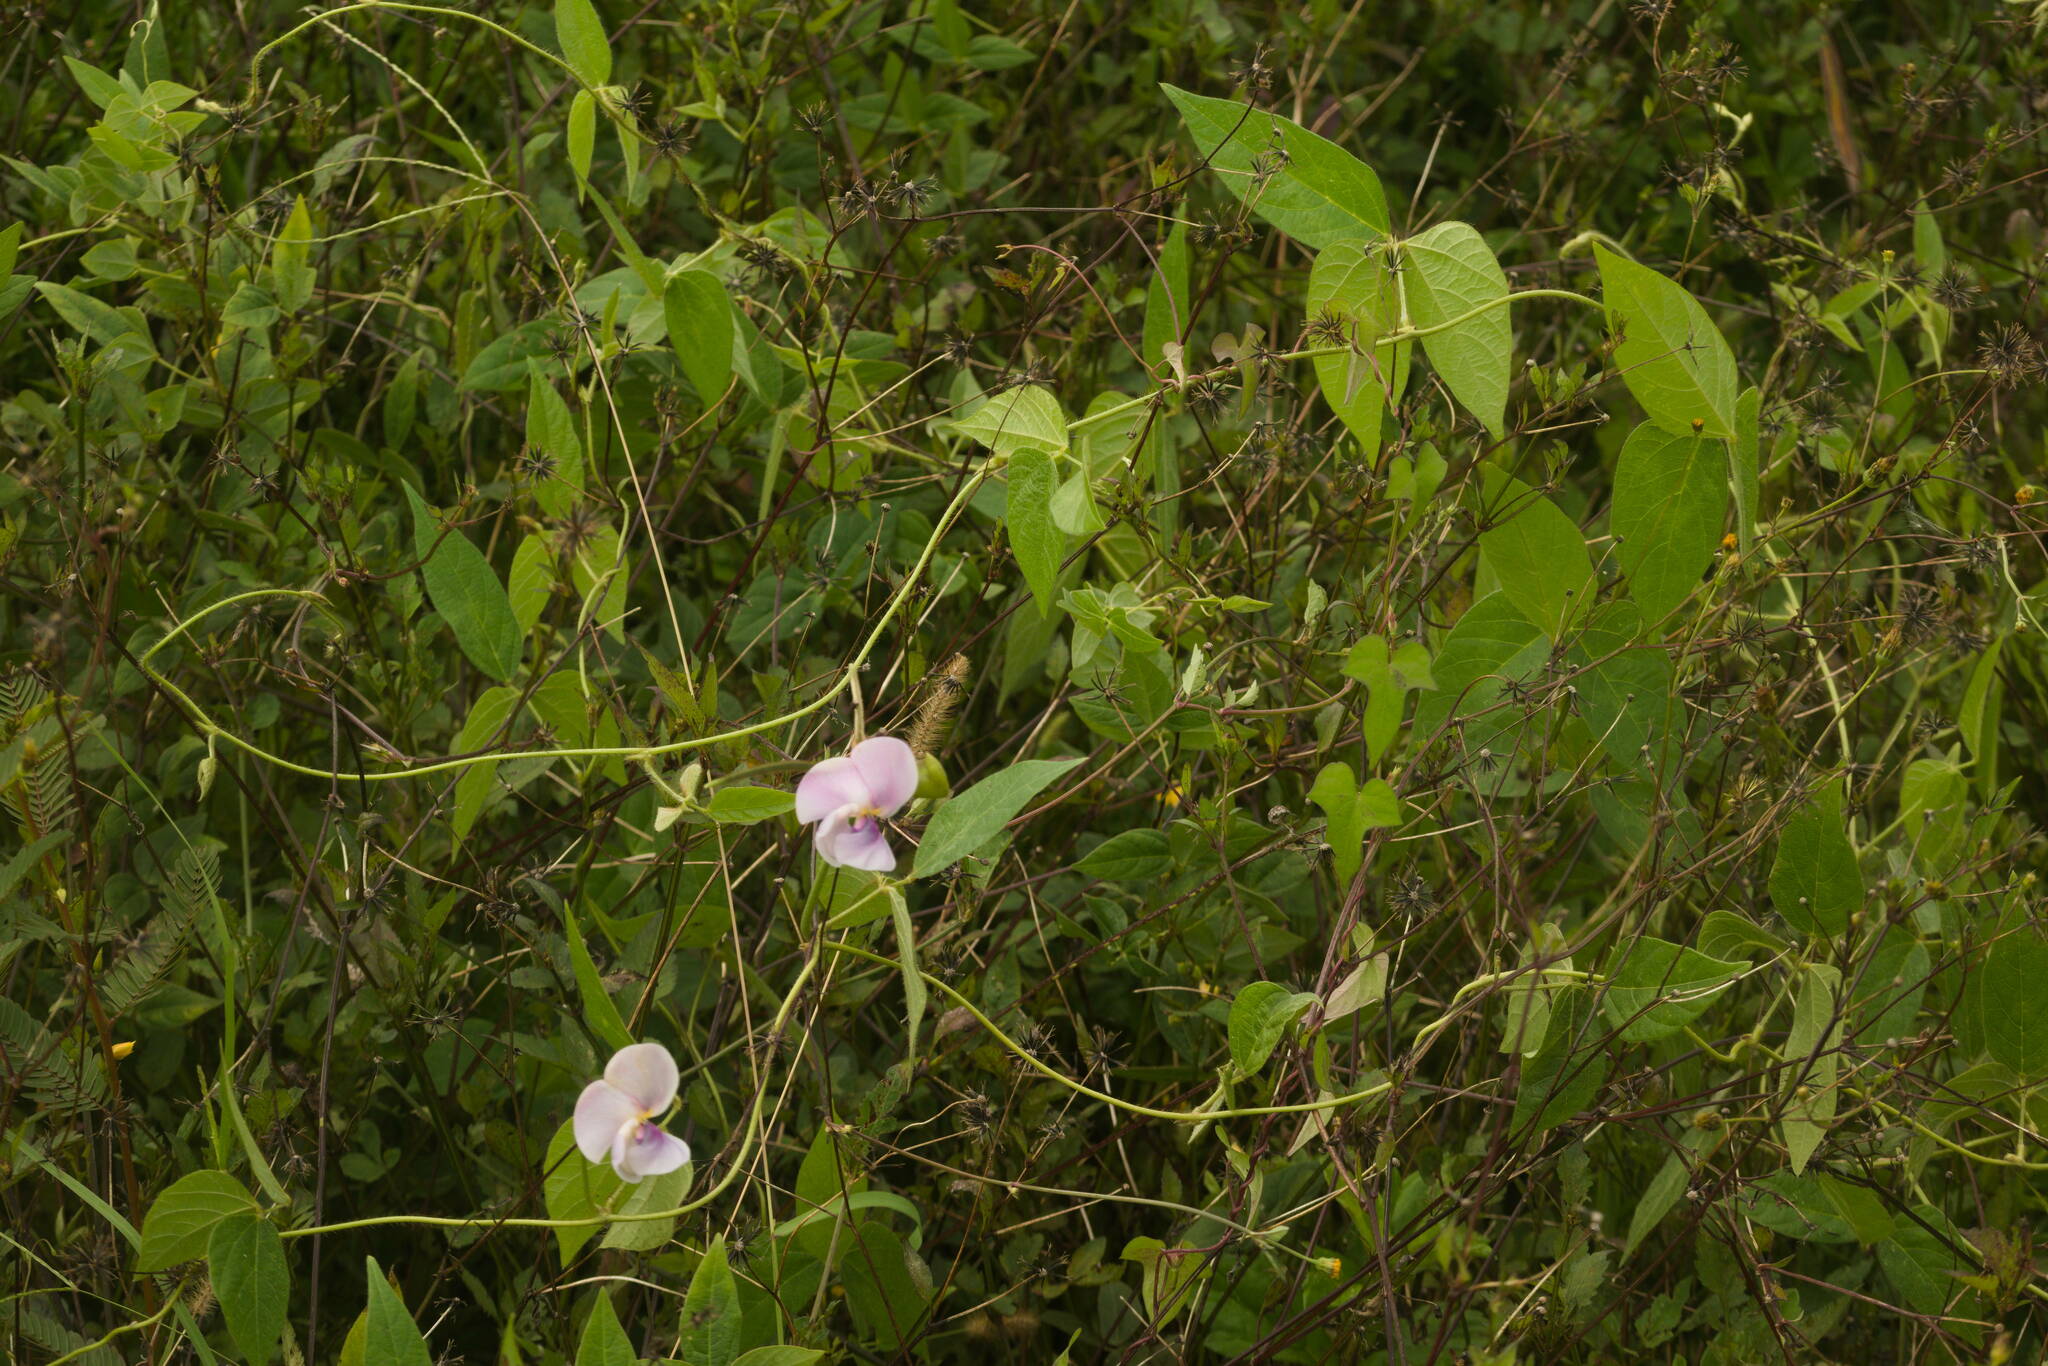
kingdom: Plantae
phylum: Tracheophyta
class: Magnoliopsida
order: Fabales
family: Fabaceae
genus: Leptospron
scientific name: Leptospron adenanthum
